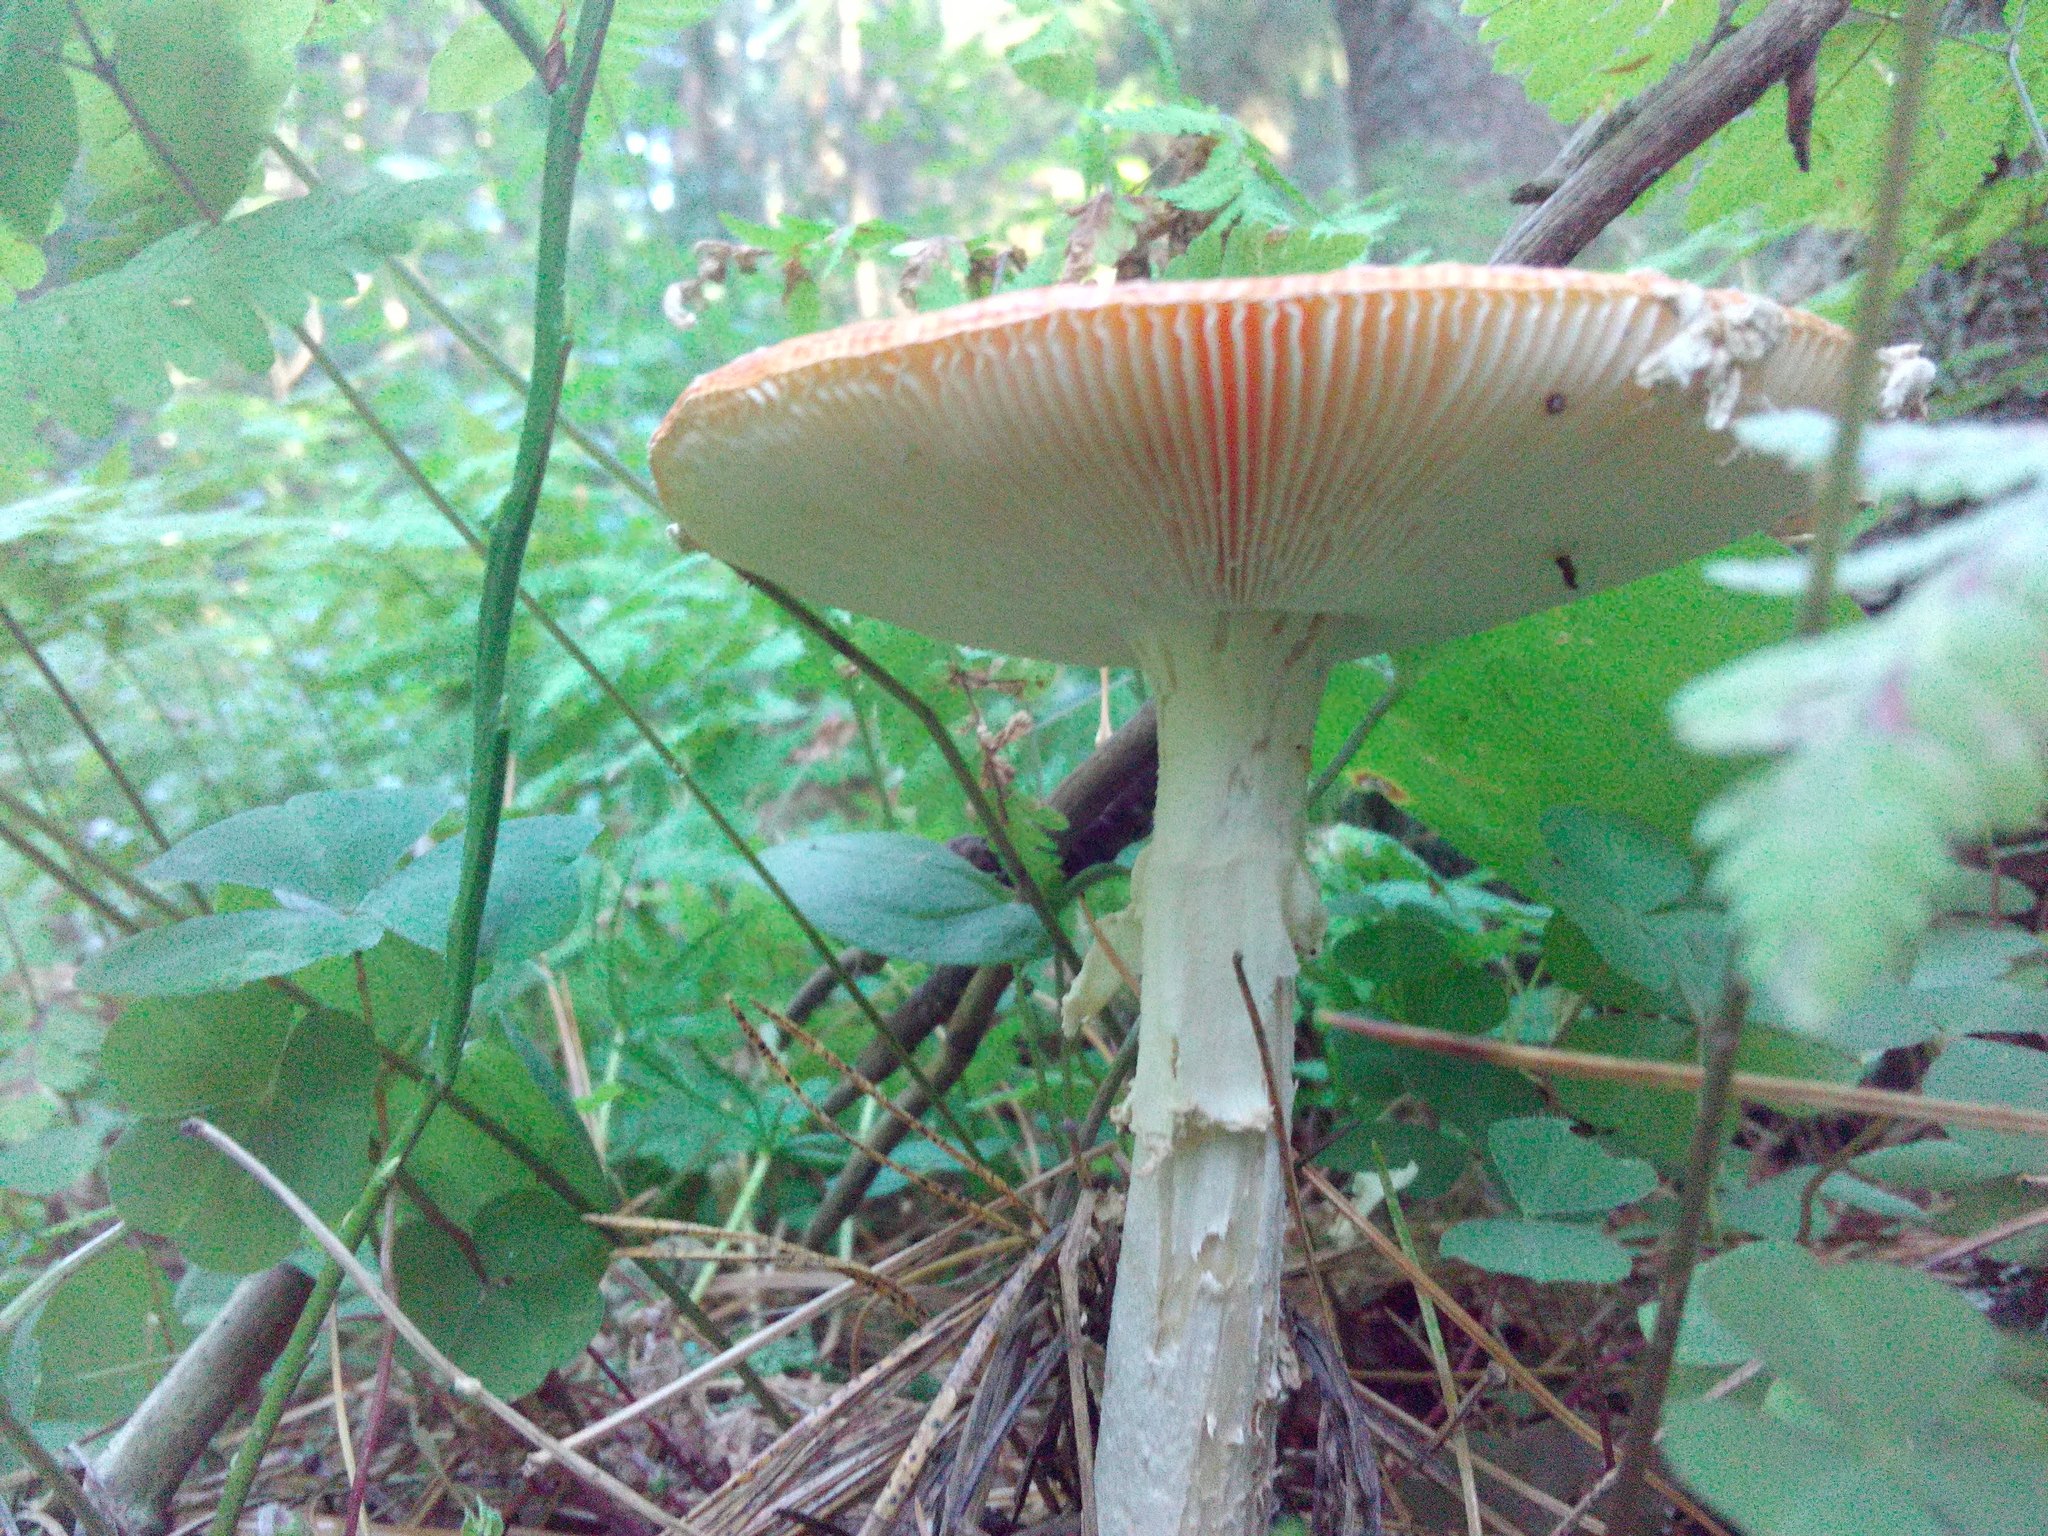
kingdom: Fungi
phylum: Basidiomycota
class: Agaricomycetes
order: Agaricales
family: Amanitaceae
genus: Amanita
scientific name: Amanita muscaria
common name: Fly agaric
